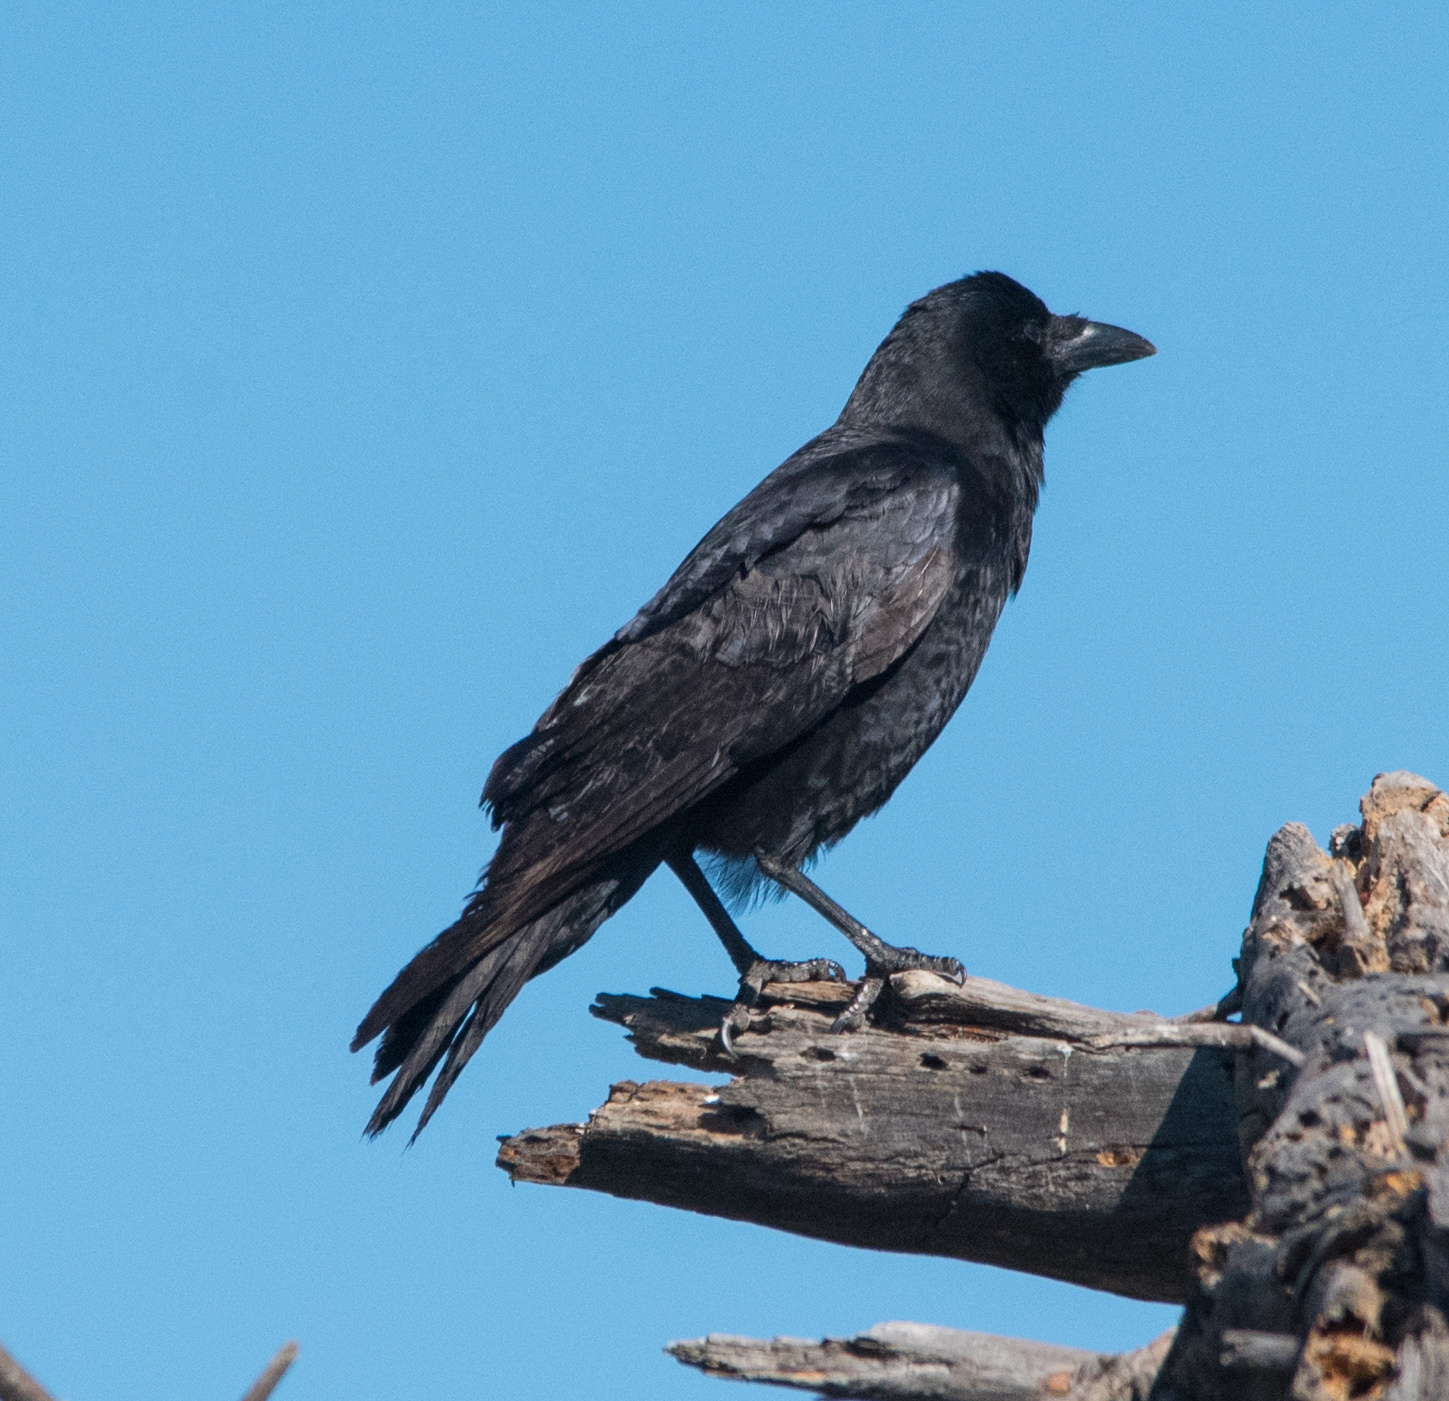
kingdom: Animalia
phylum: Chordata
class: Aves
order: Passeriformes
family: Corvidae
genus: Corvus
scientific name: Corvus brachyrhynchos
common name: American crow
